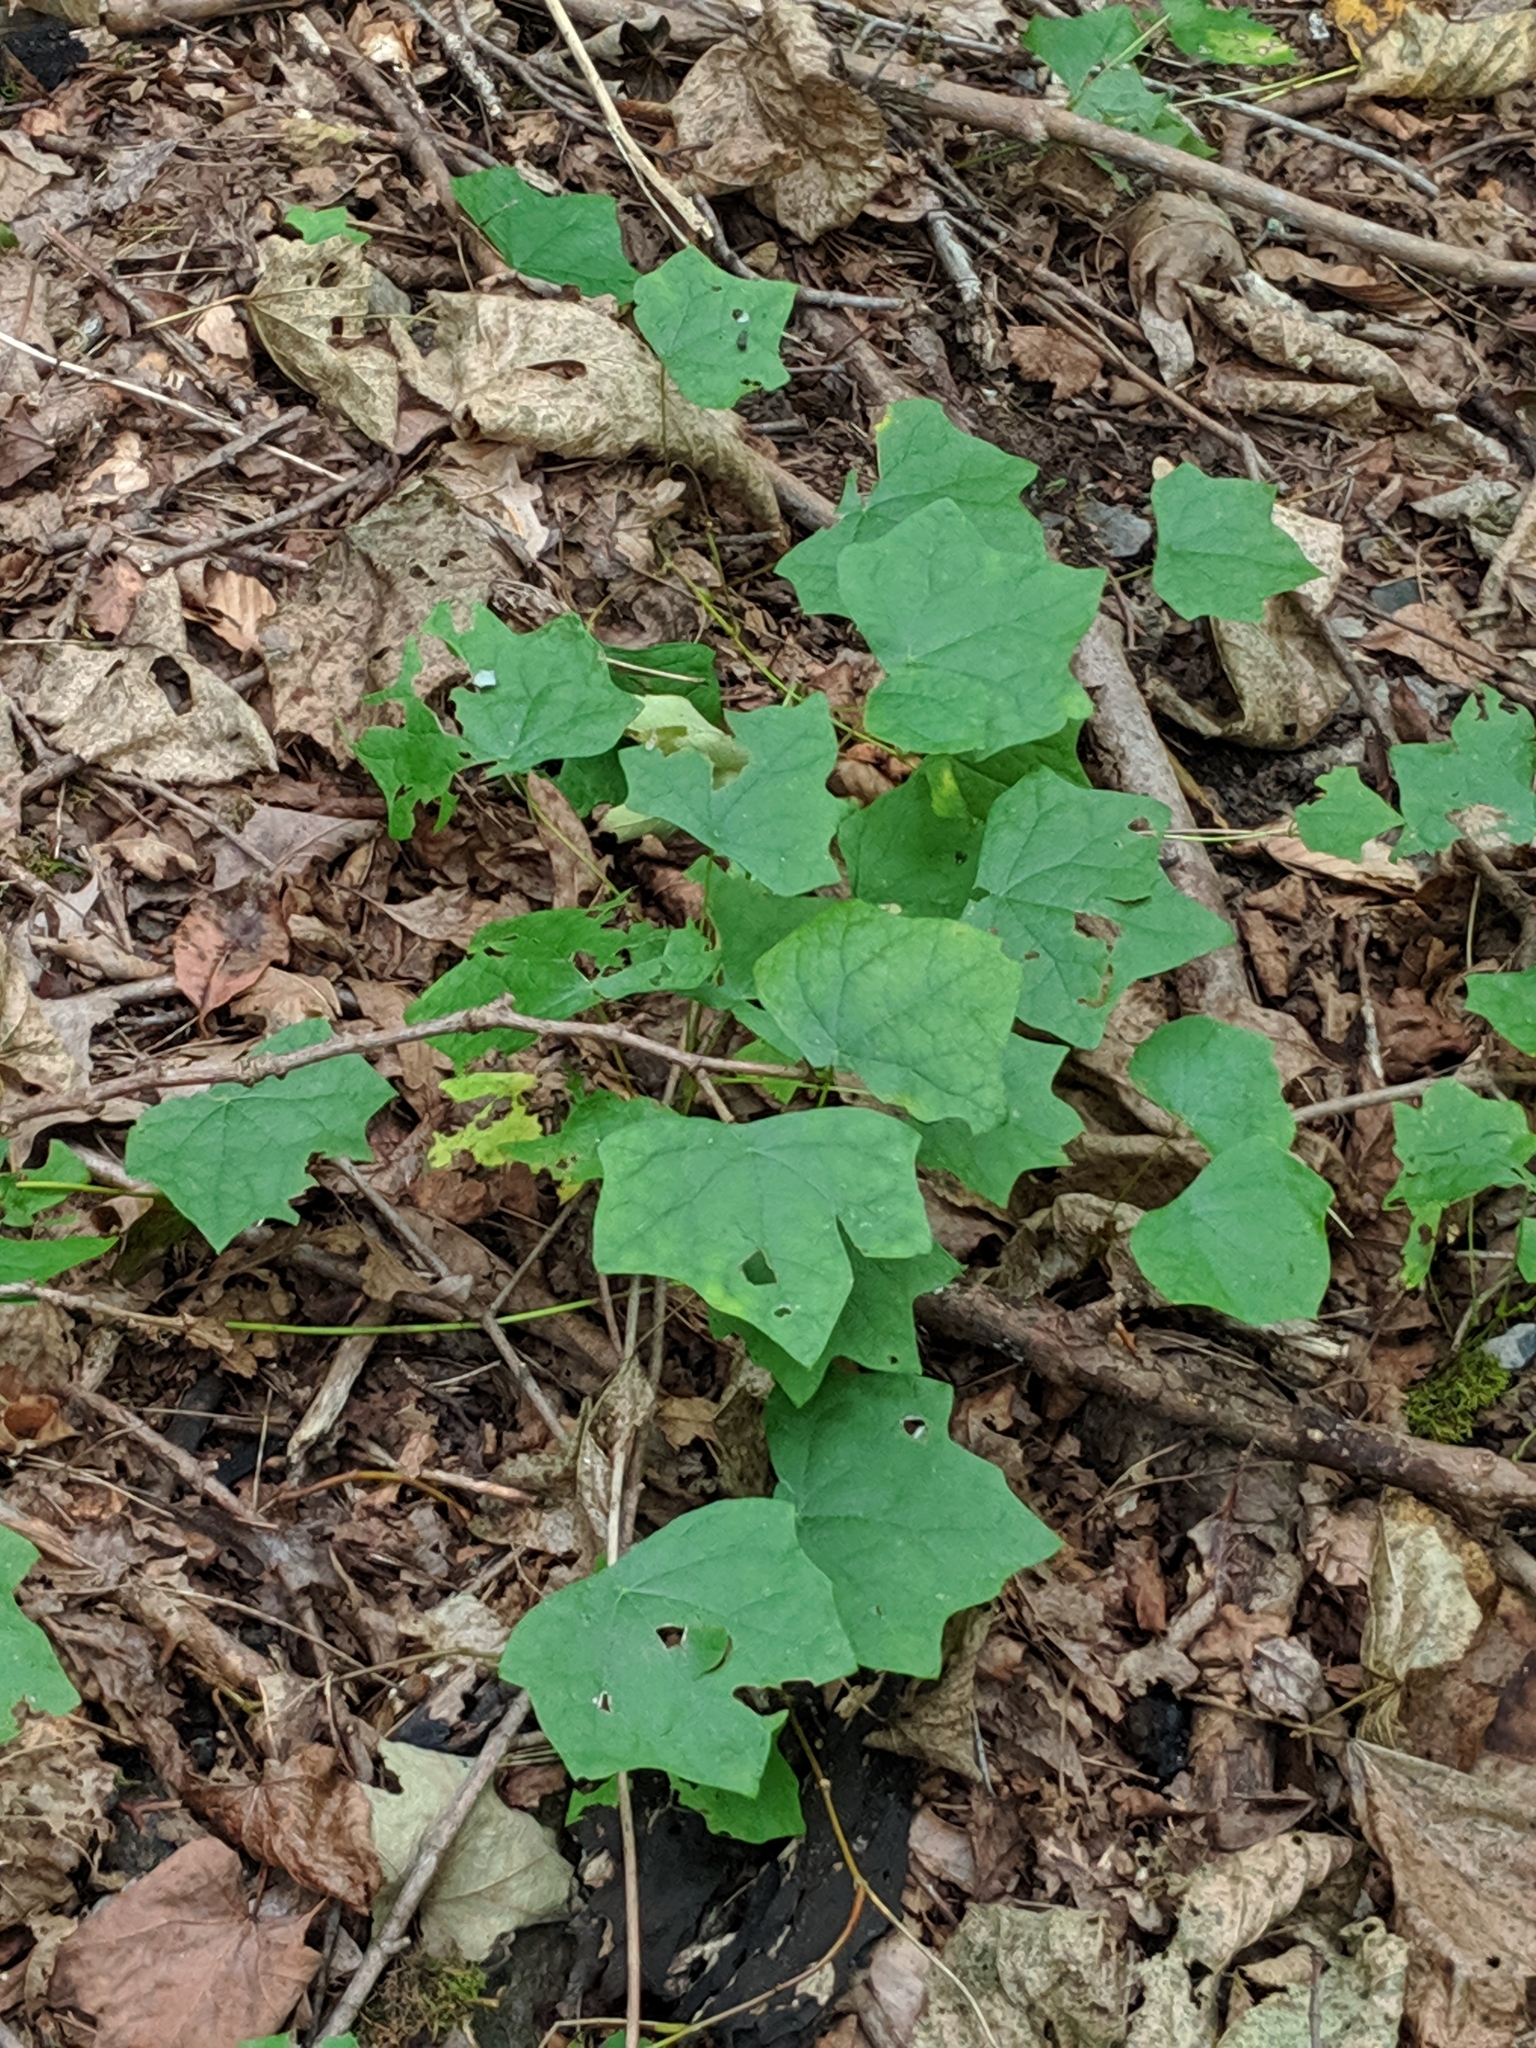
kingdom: Plantae
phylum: Tracheophyta
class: Magnoliopsida
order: Ranunculales
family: Menispermaceae
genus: Menispermum
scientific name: Menispermum canadense
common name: Moonseed
